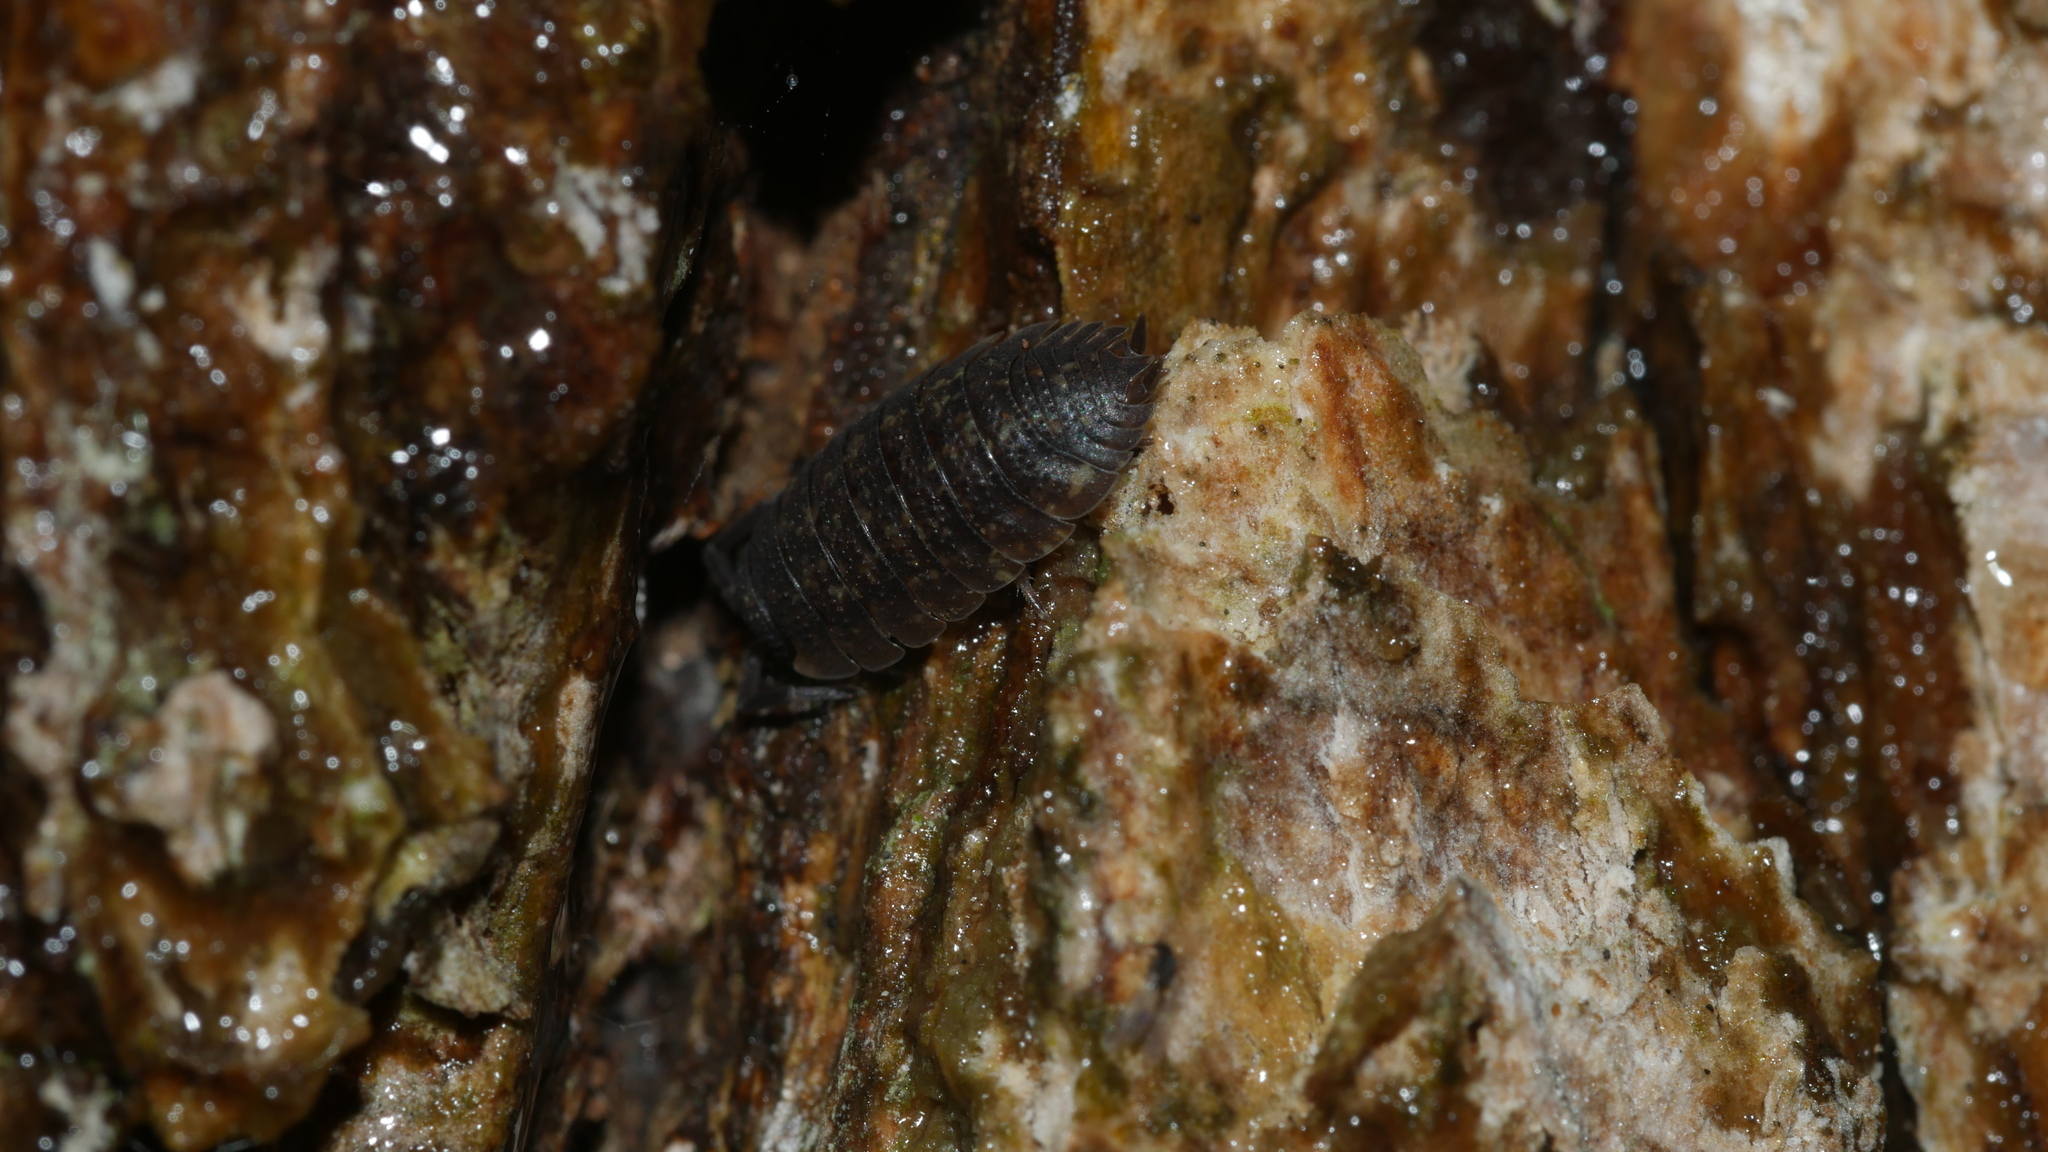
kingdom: Animalia
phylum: Arthropoda
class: Malacostraca
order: Isopoda
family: Porcellionidae
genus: Porcellio
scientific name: Porcellio scaber
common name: Common rough woodlouse
